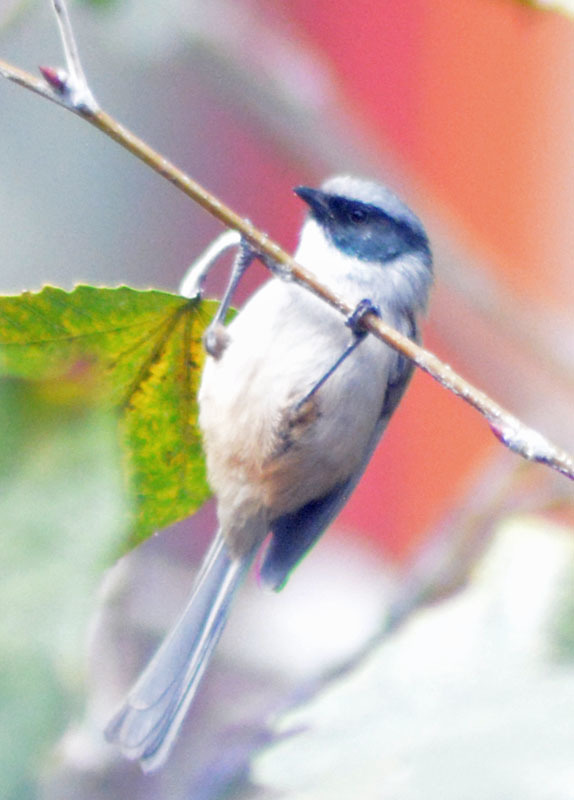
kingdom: Animalia
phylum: Chordata
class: Aves
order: Passeriformes
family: Aegithalidae
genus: Psaltriparus
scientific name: Psaltriparus minimus
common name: American bushtit
